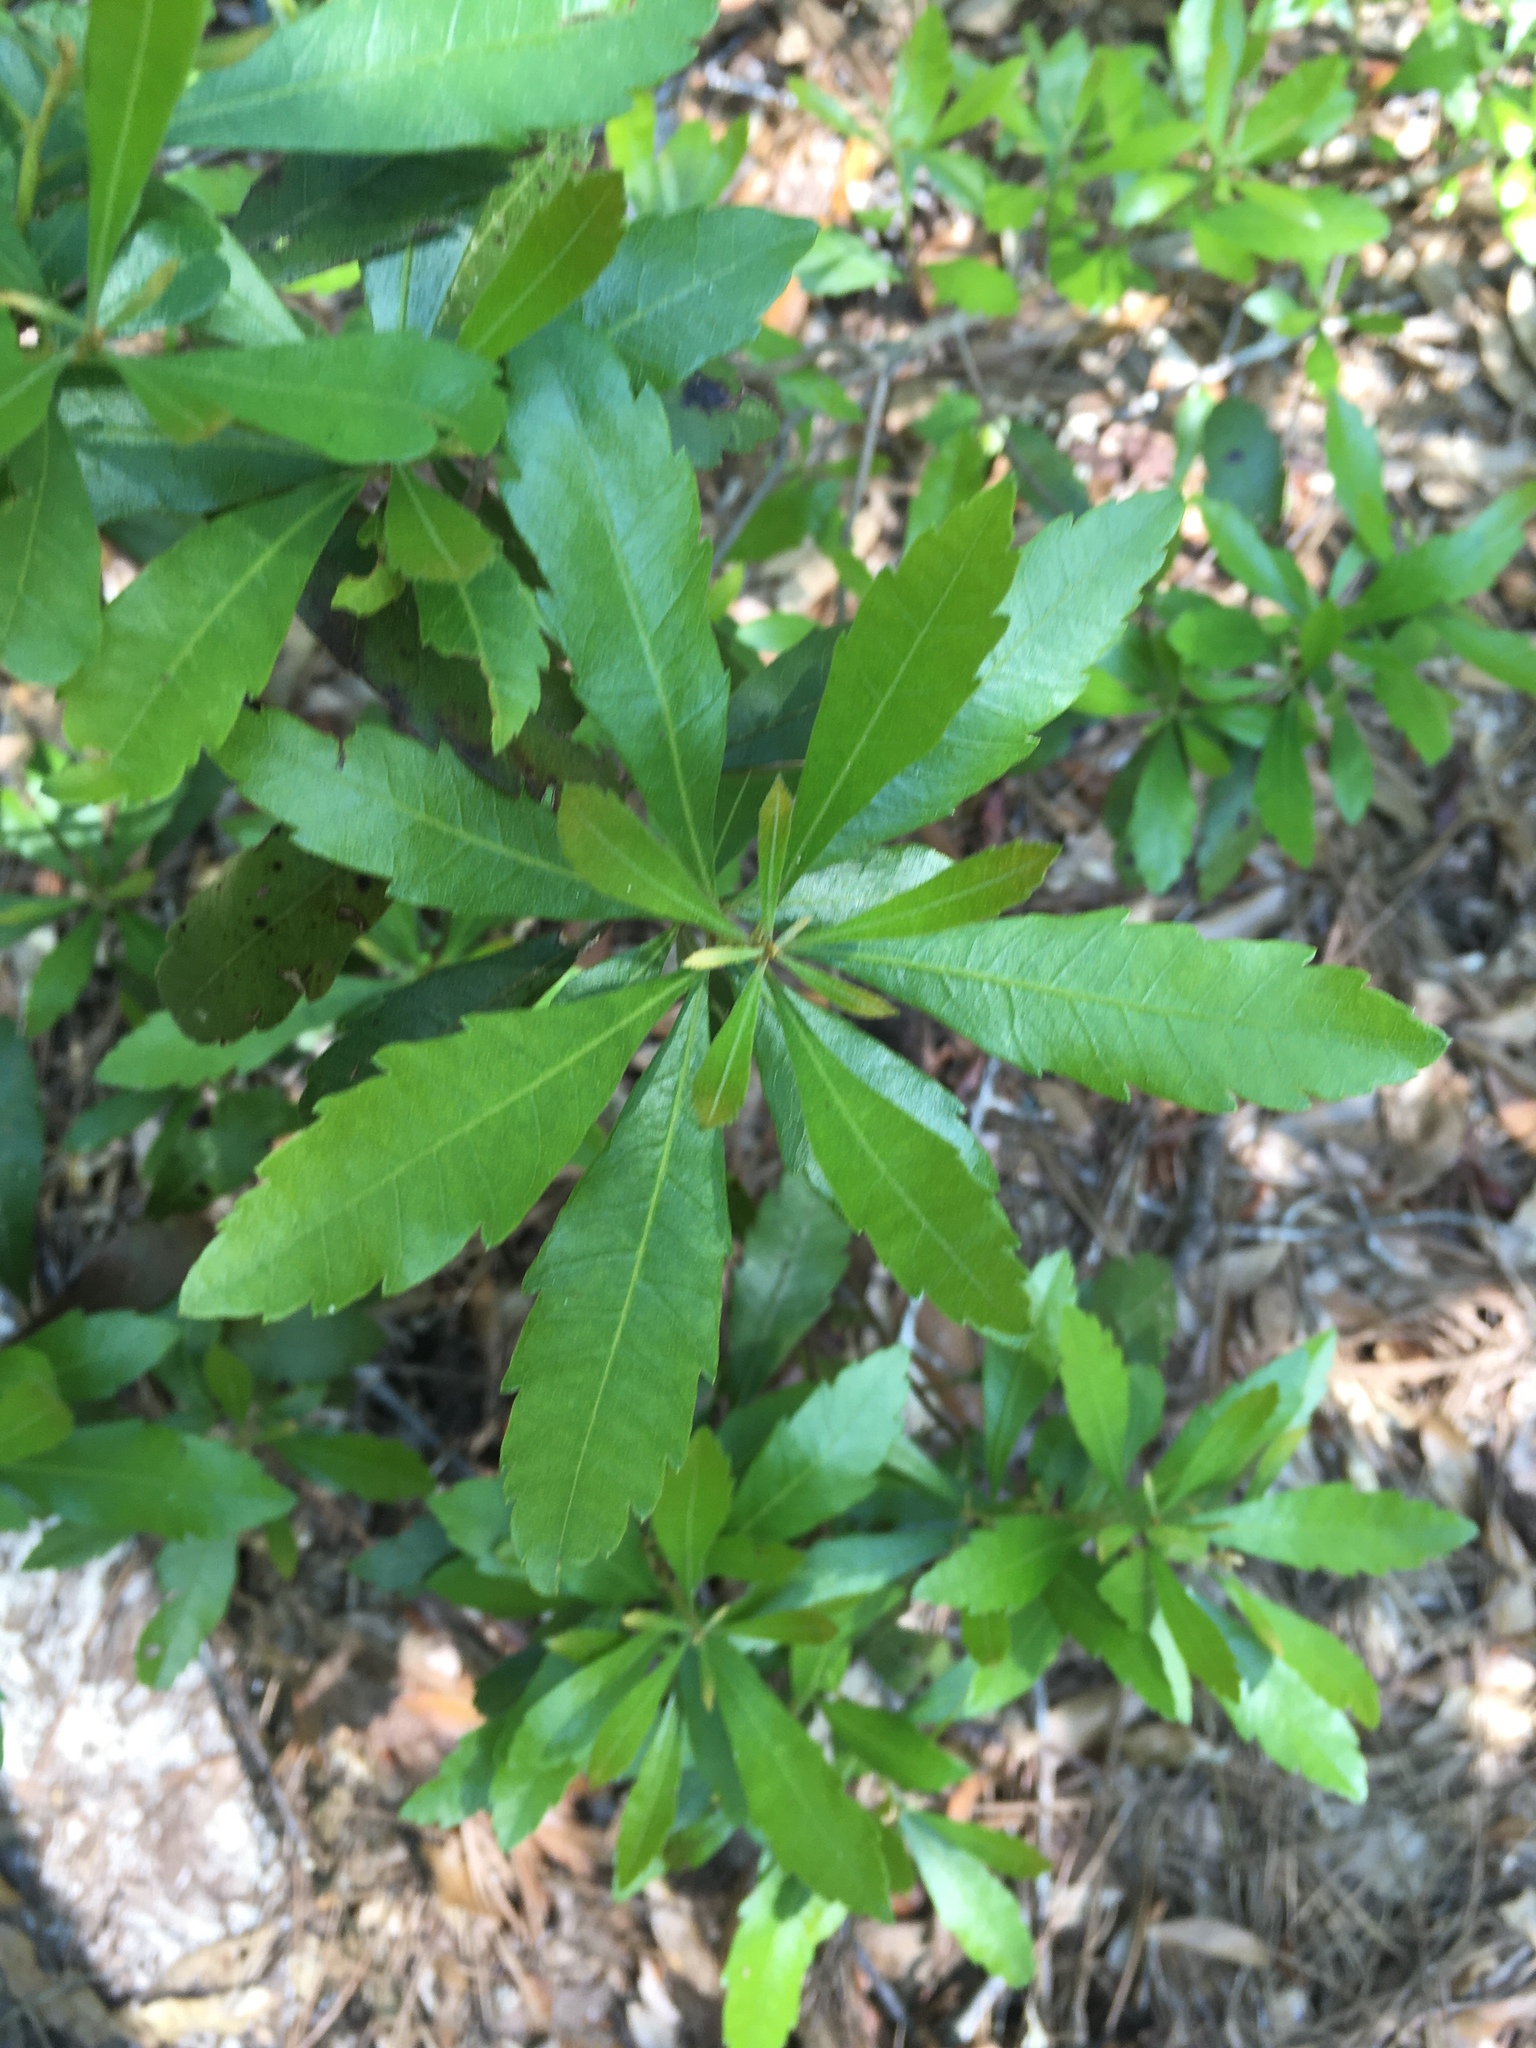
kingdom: Plantae
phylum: Tracheophyta
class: Magnoliopsida
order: Fagales
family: Myricaceae
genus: Morella
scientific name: Morella cerifera
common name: Wax myrtle
